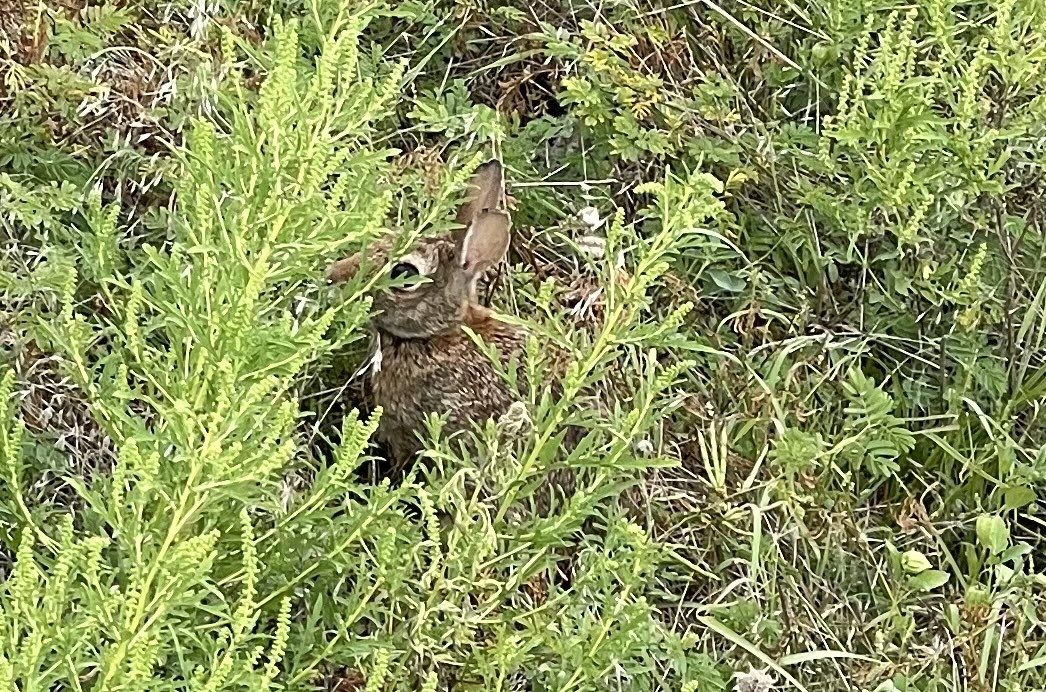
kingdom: Animalia
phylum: Chordata
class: Mammalia
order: Lagomorpha
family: Leporidae
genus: Sylvilagus
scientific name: Sylvilagus floridanus
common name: Eastern cottontail
